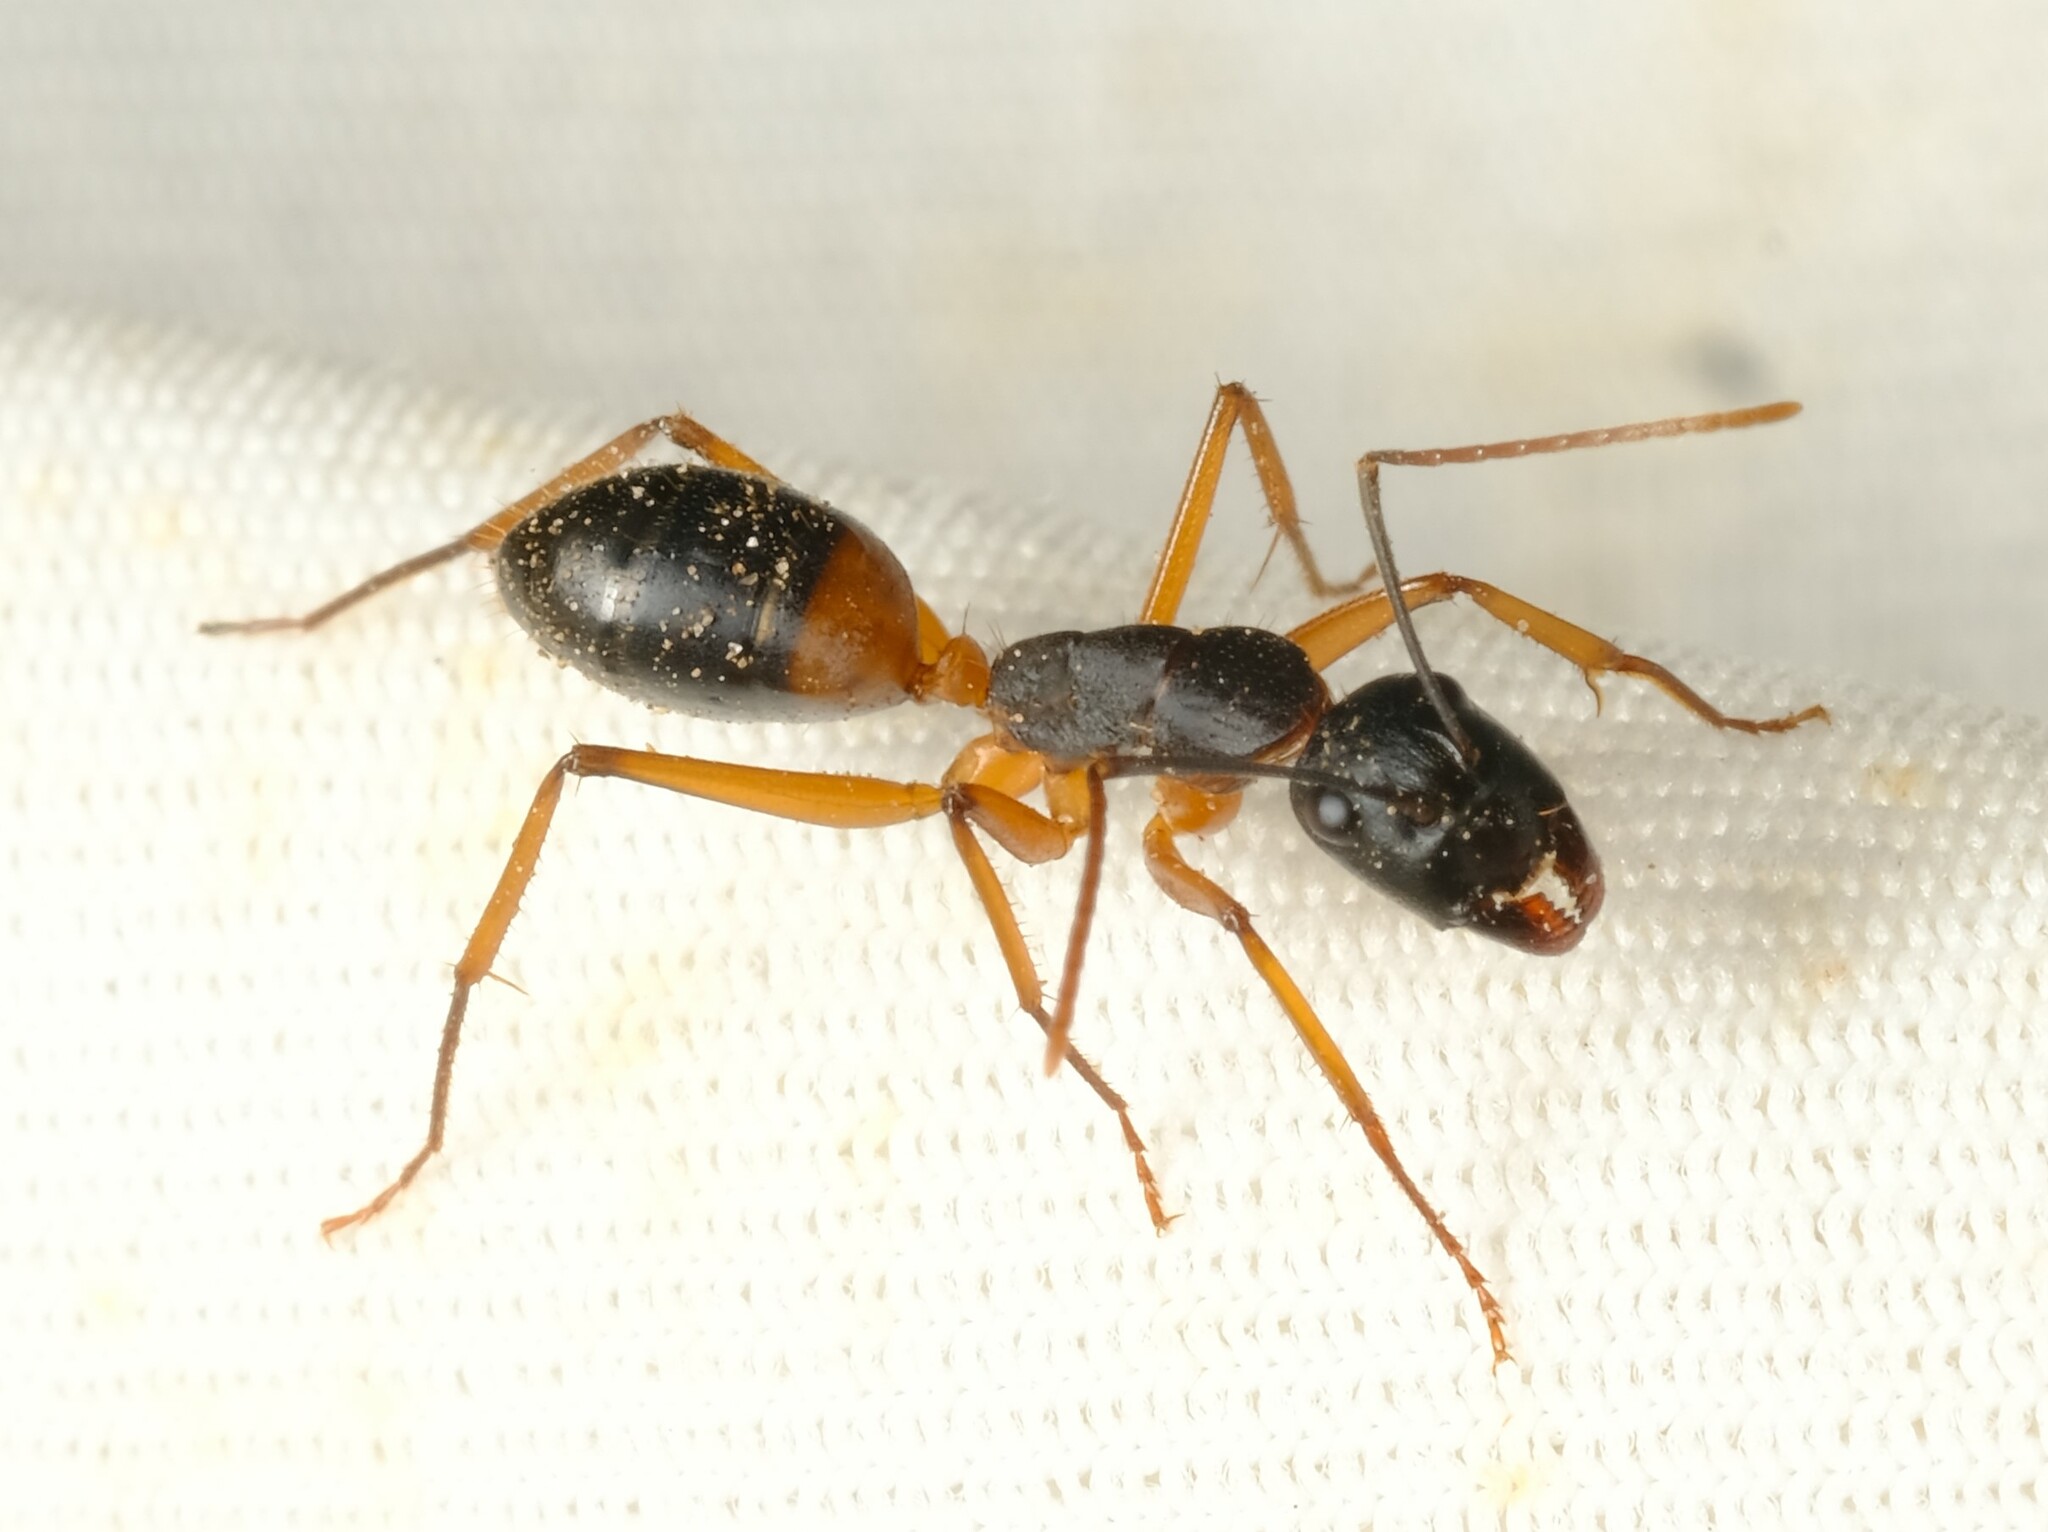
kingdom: Animalia
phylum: Arthropoda
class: Insecta
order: Hymenoptera
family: Formicidae
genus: Camponotus
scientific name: Camponotus consobrinus
